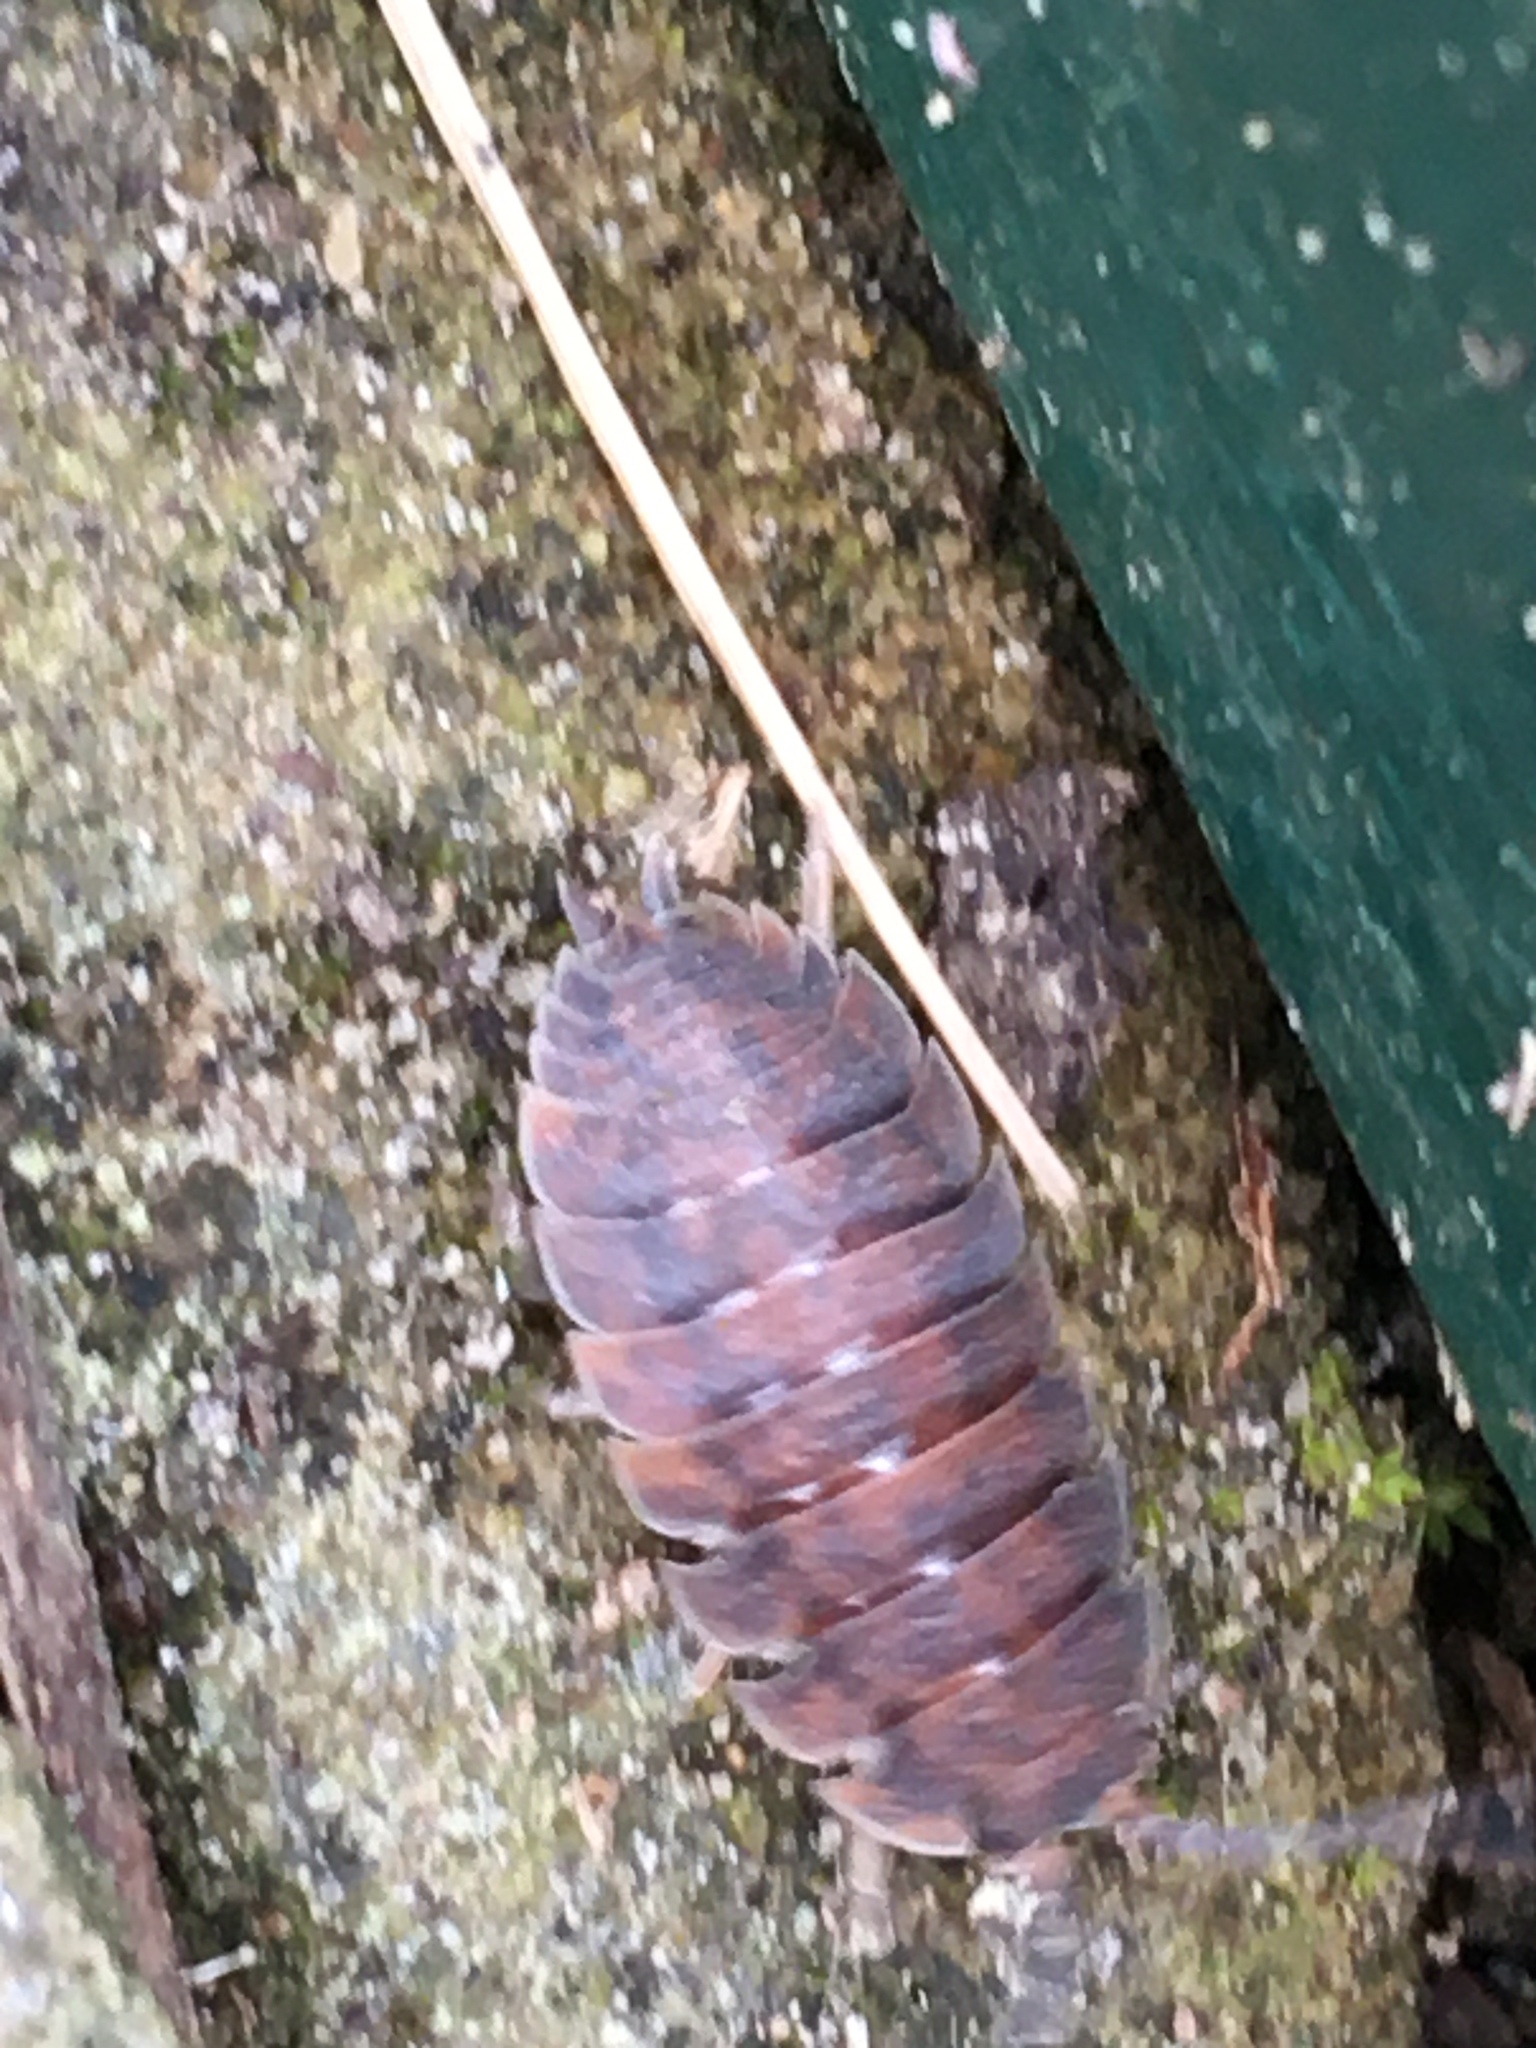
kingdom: Animalia
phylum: Arthropoda
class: Malacostraca
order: Isopoda
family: Porcellionidae
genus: Porcellio
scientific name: Porcellio scaber
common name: Common rough woodlouse
